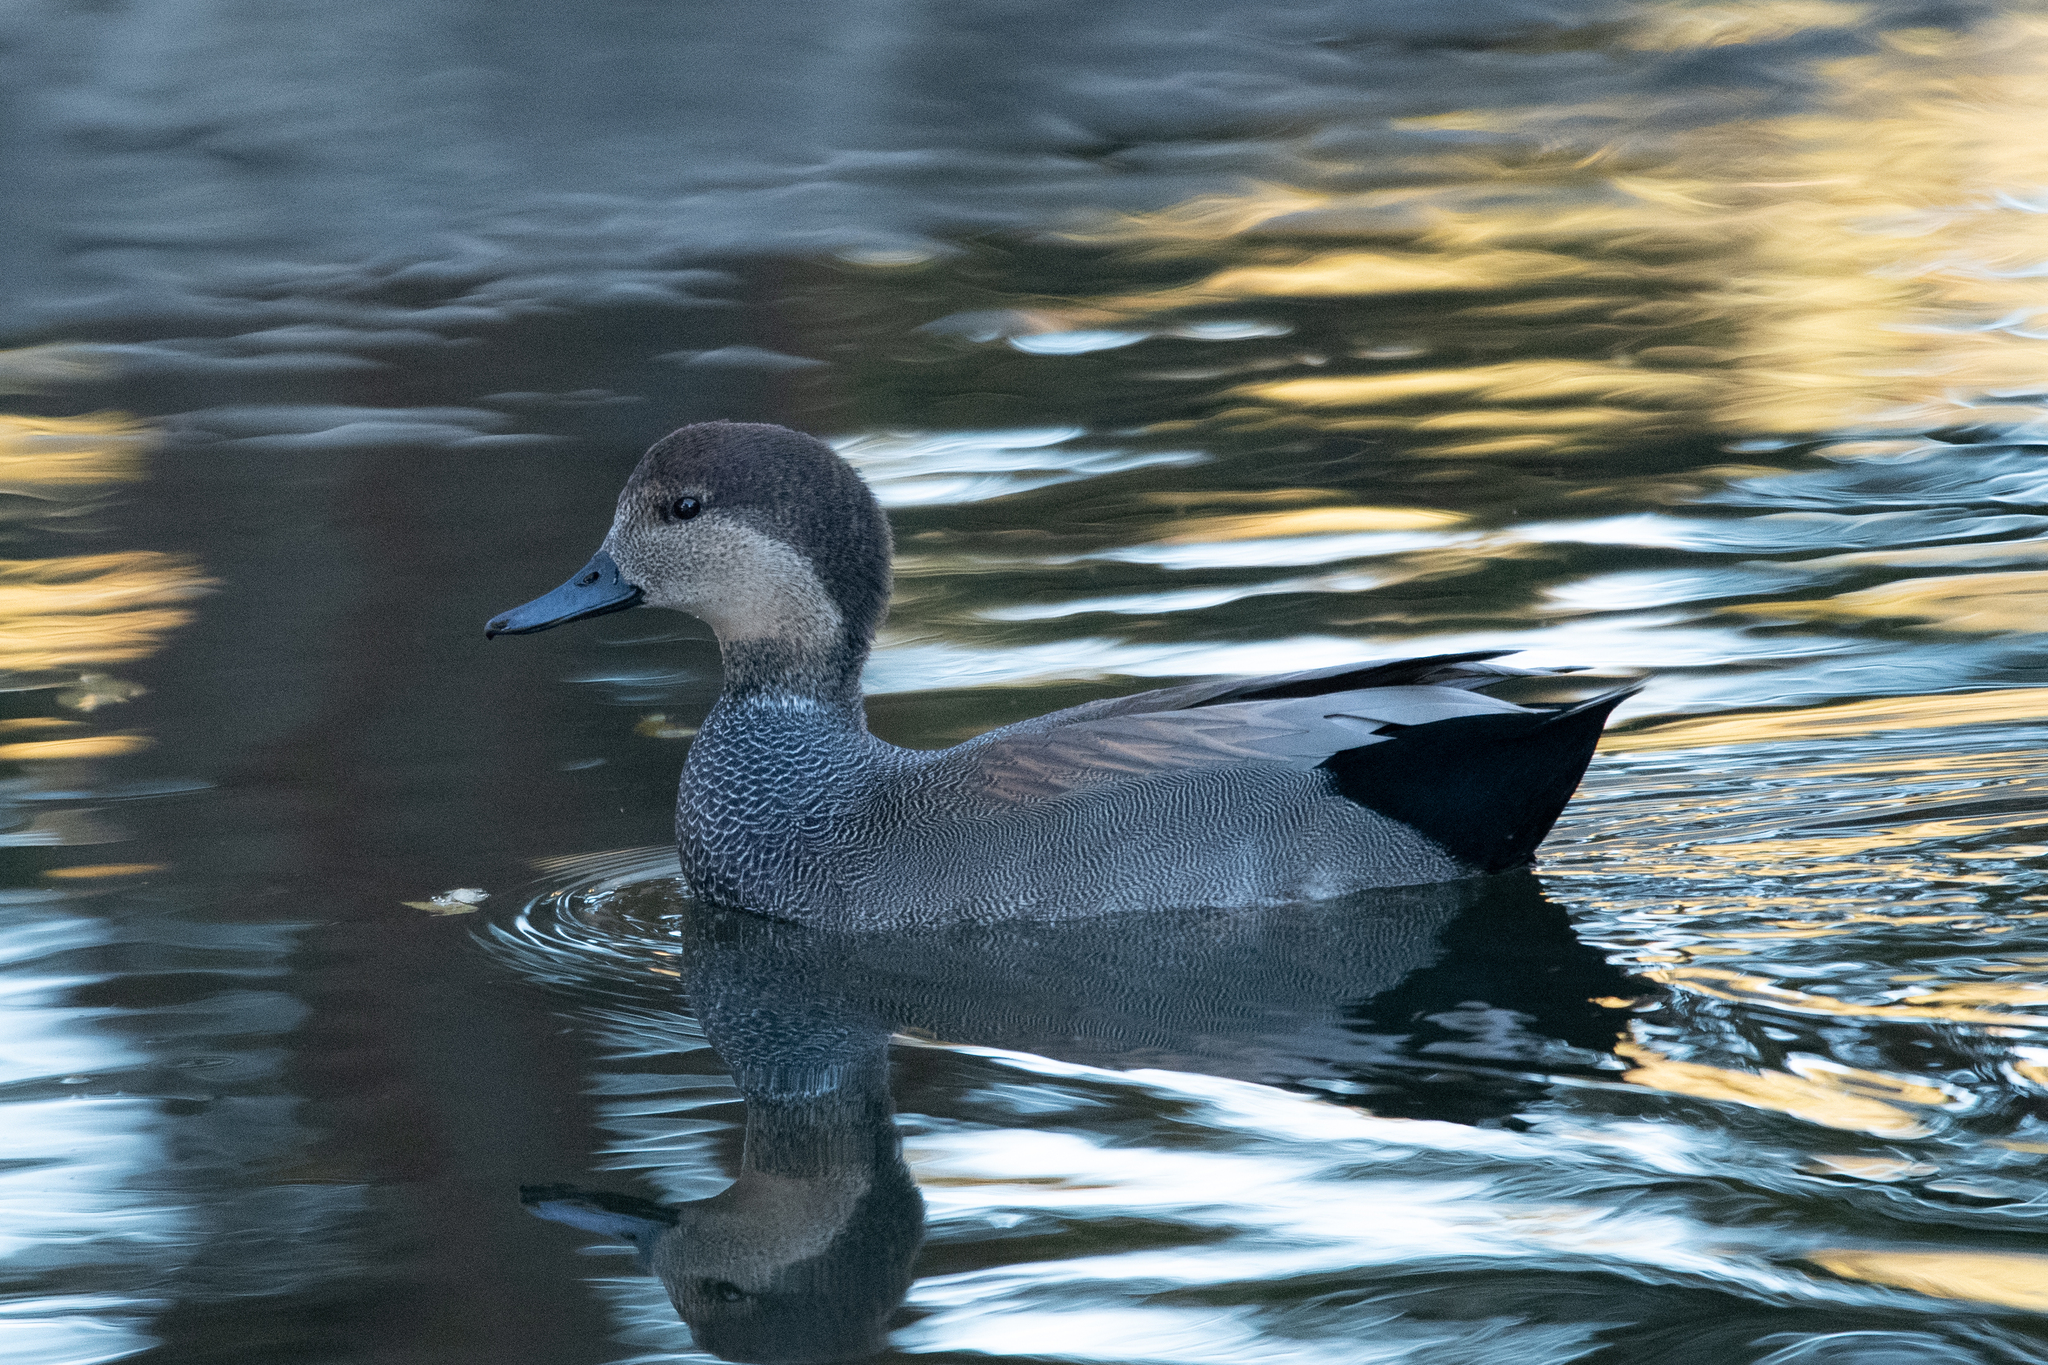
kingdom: Animalia
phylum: Chordata
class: Aves
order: Anseriformes
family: Anatidae
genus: Mareca
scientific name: Mareca strepera
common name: Gadwall
